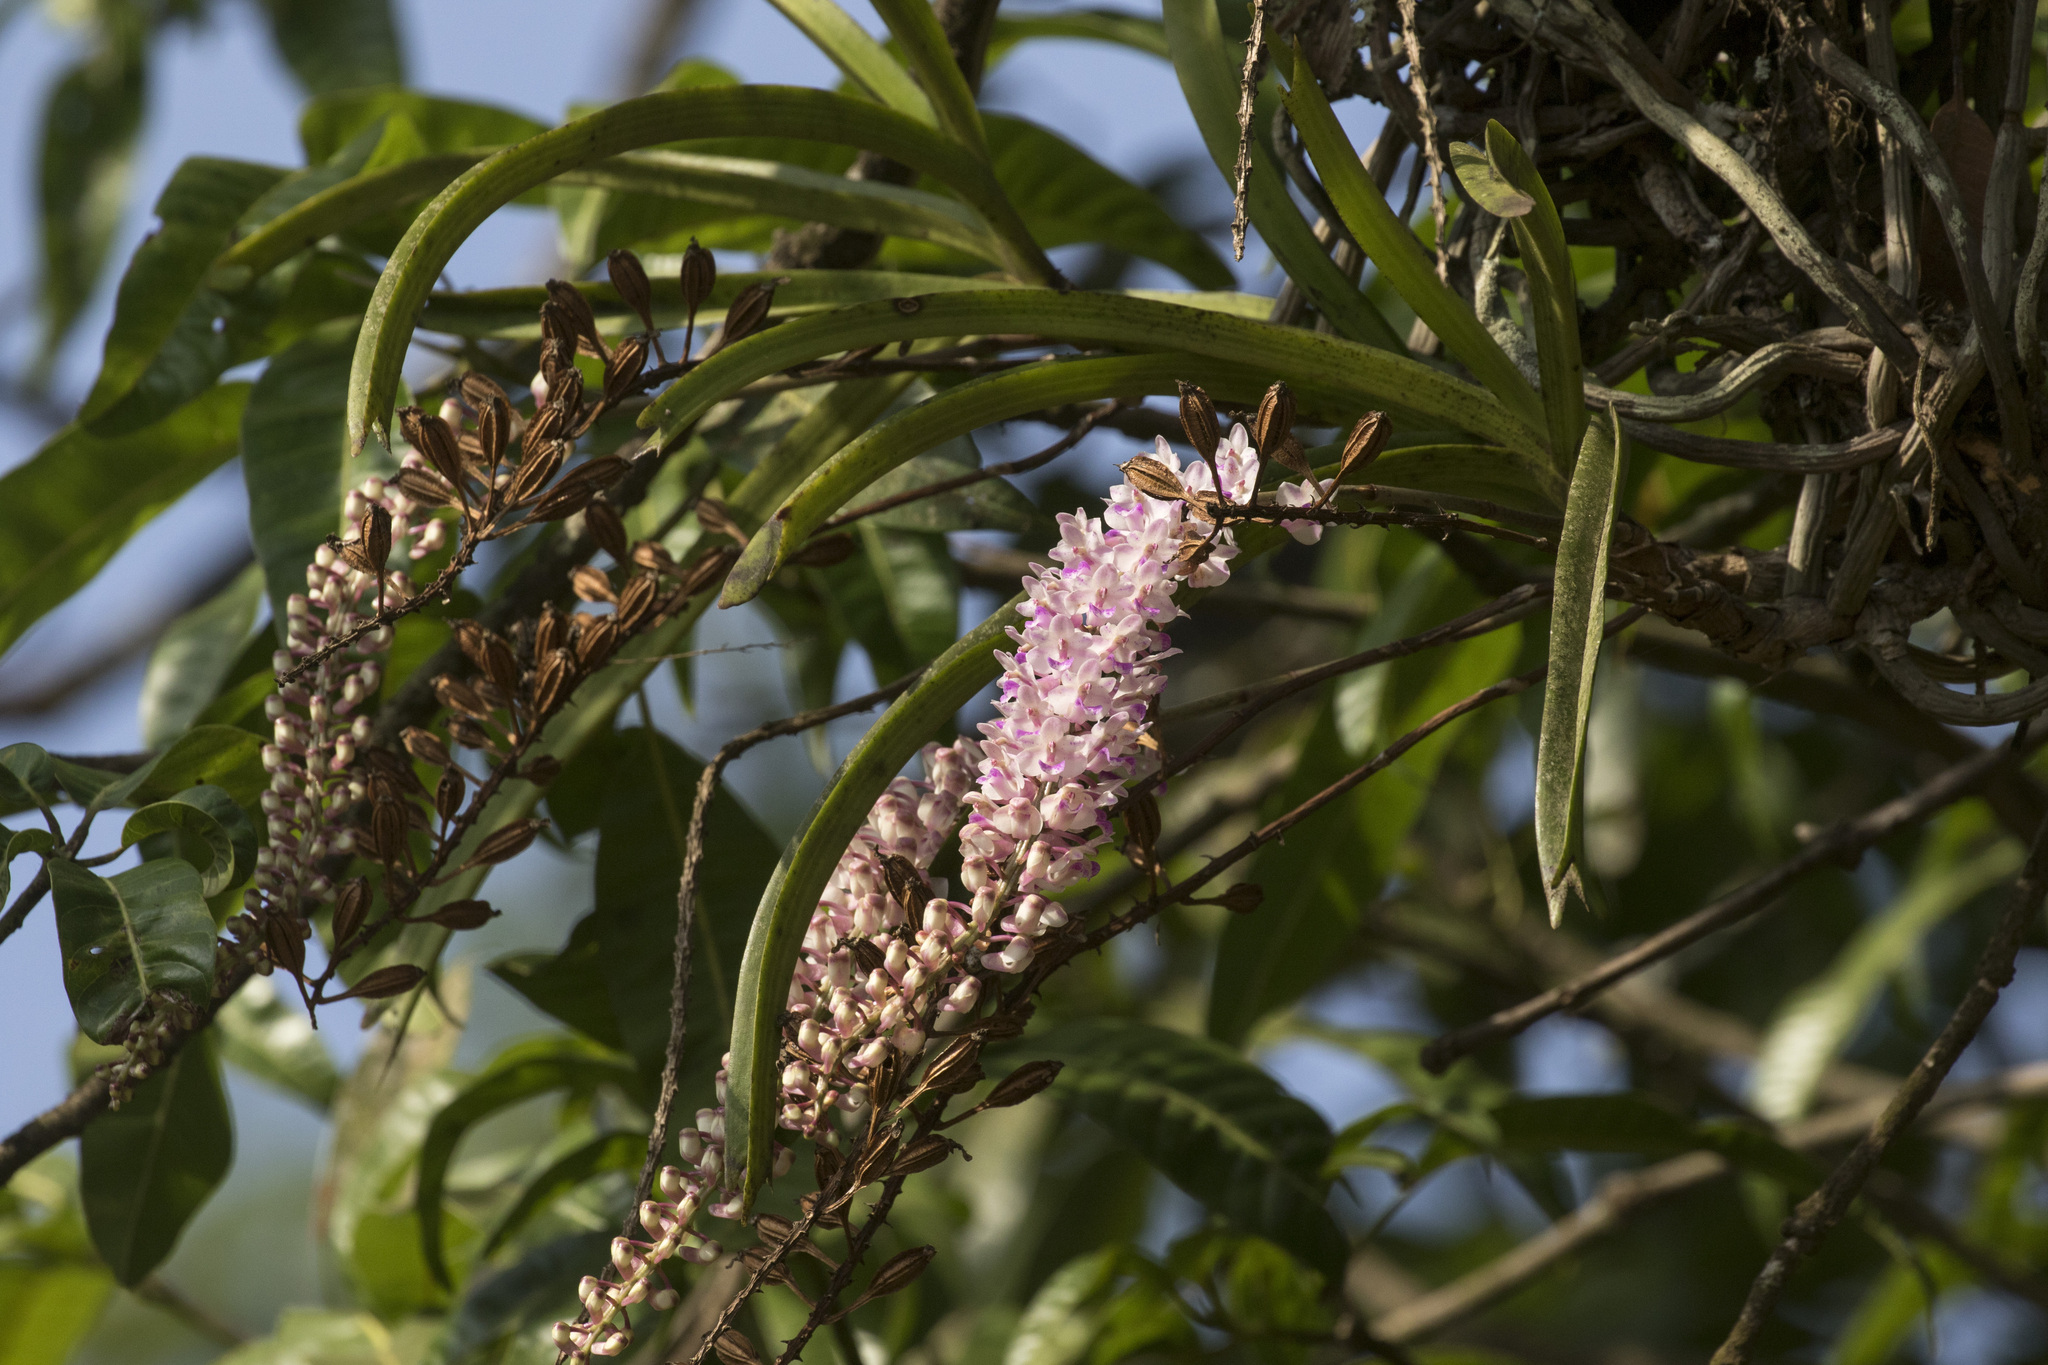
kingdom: Plantae
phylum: Tracheophyta
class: Liliopsida
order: Asparagales
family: Orchidaceae
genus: Rhynchostylis
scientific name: Rhynchostylis retusa
